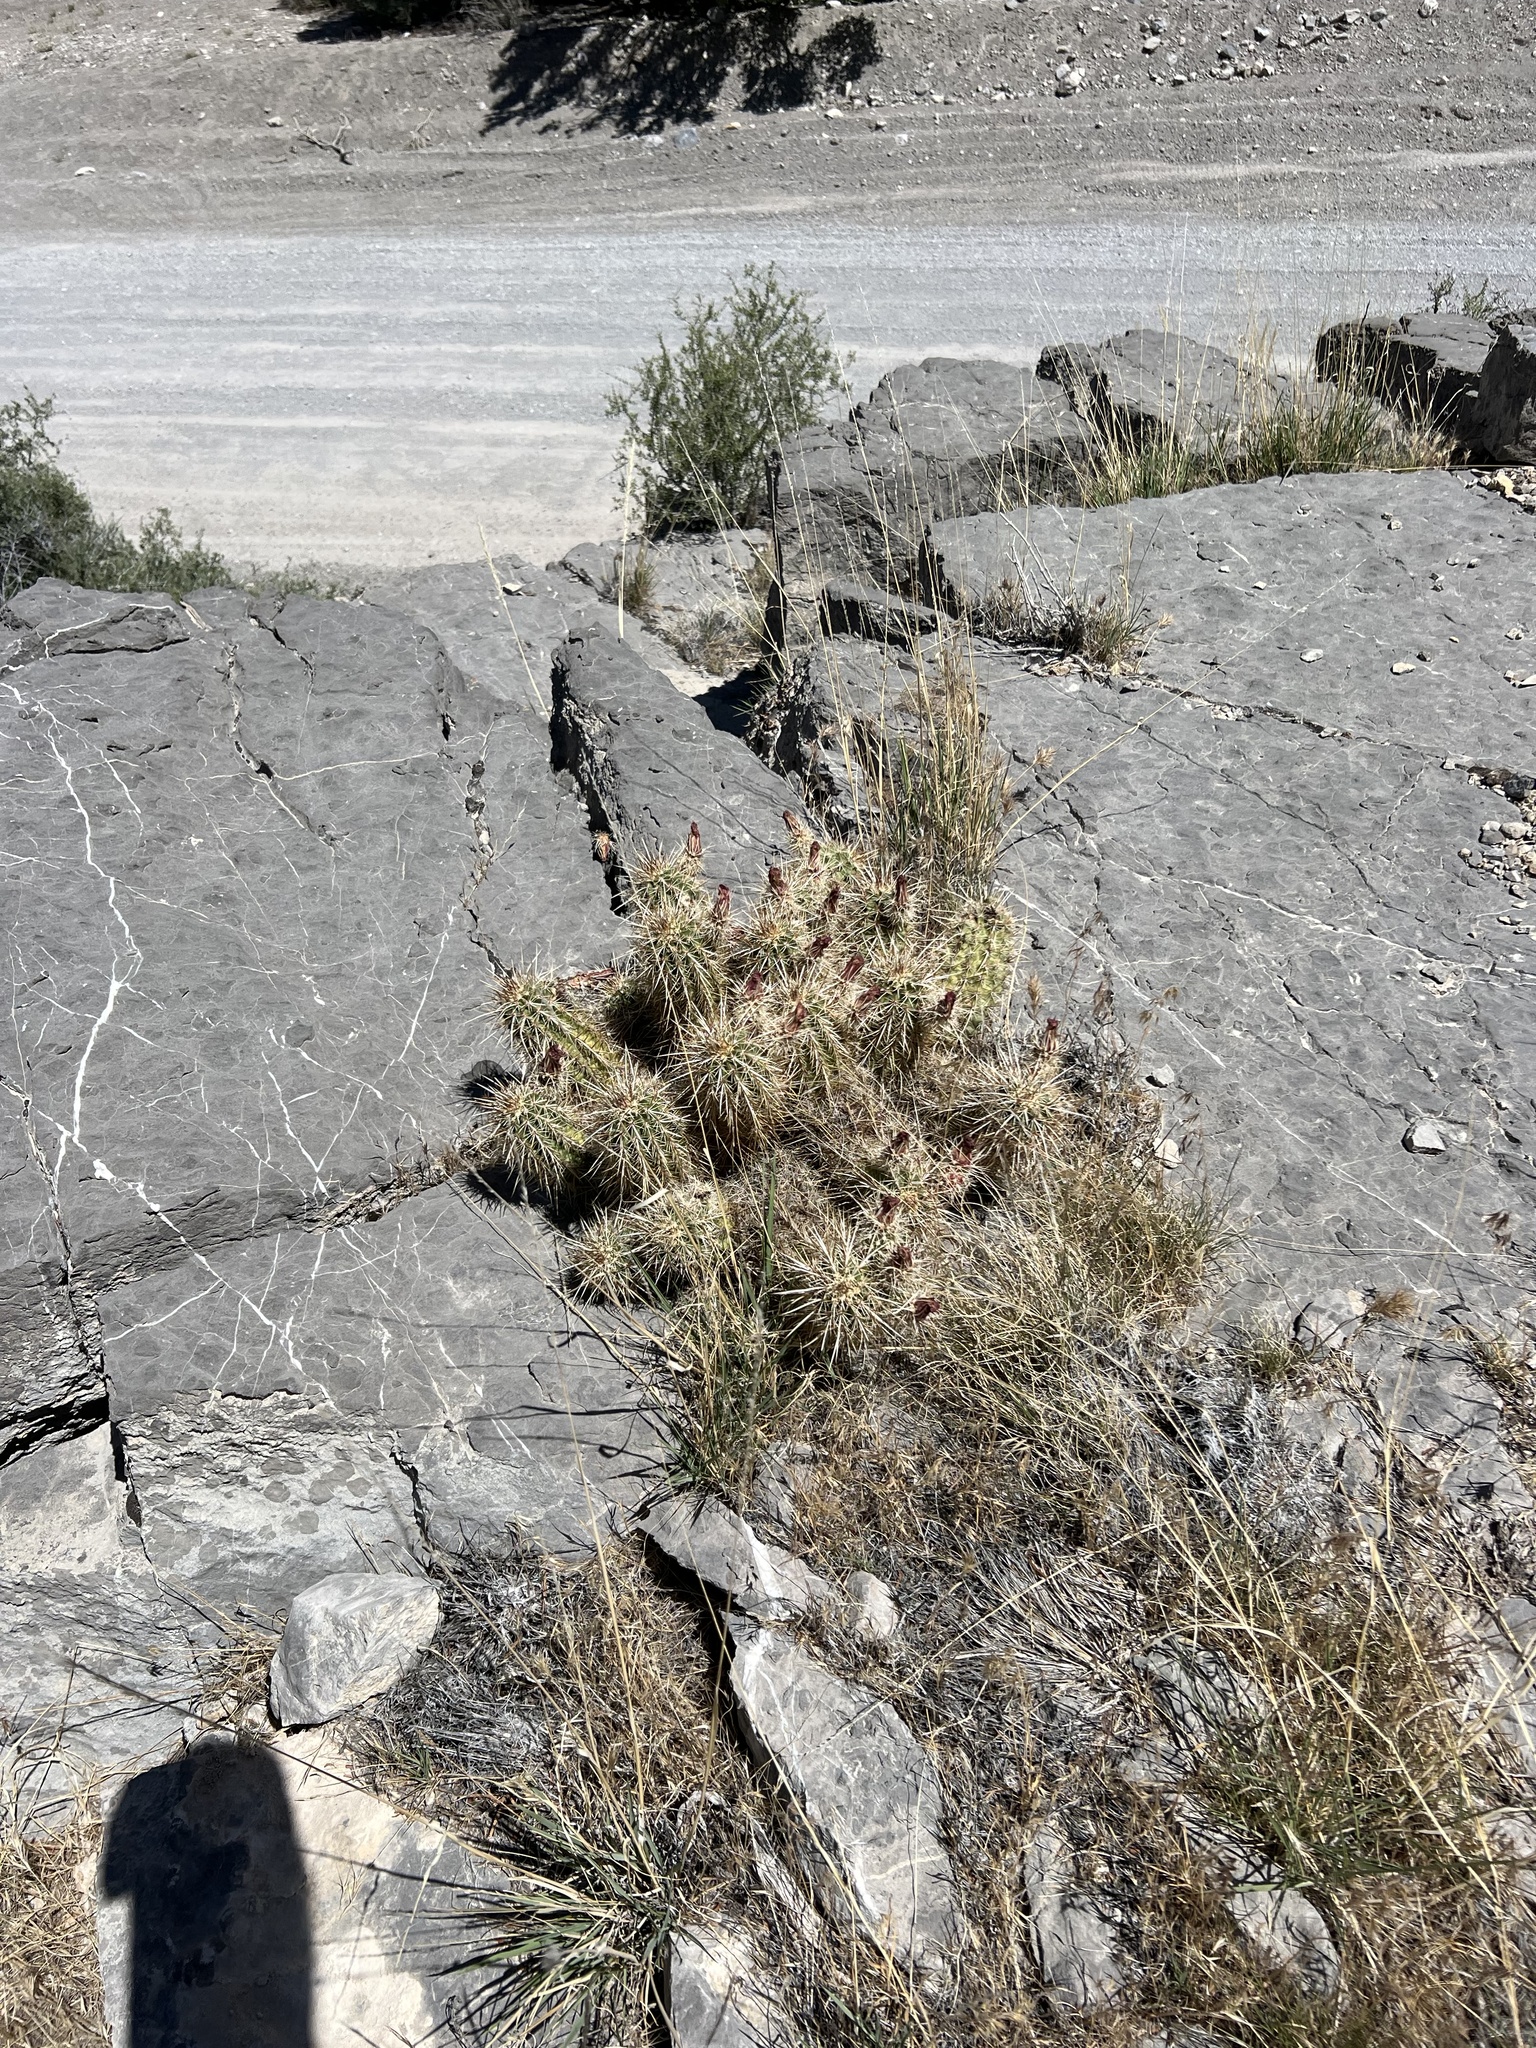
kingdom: Plantae
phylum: Tracheophyta
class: Magnoliopsida
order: Caryophyllales
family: Cactaceae
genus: Echinocereus
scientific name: Echinocereus engelmannii
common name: Engelmann's hedgehog cactus
